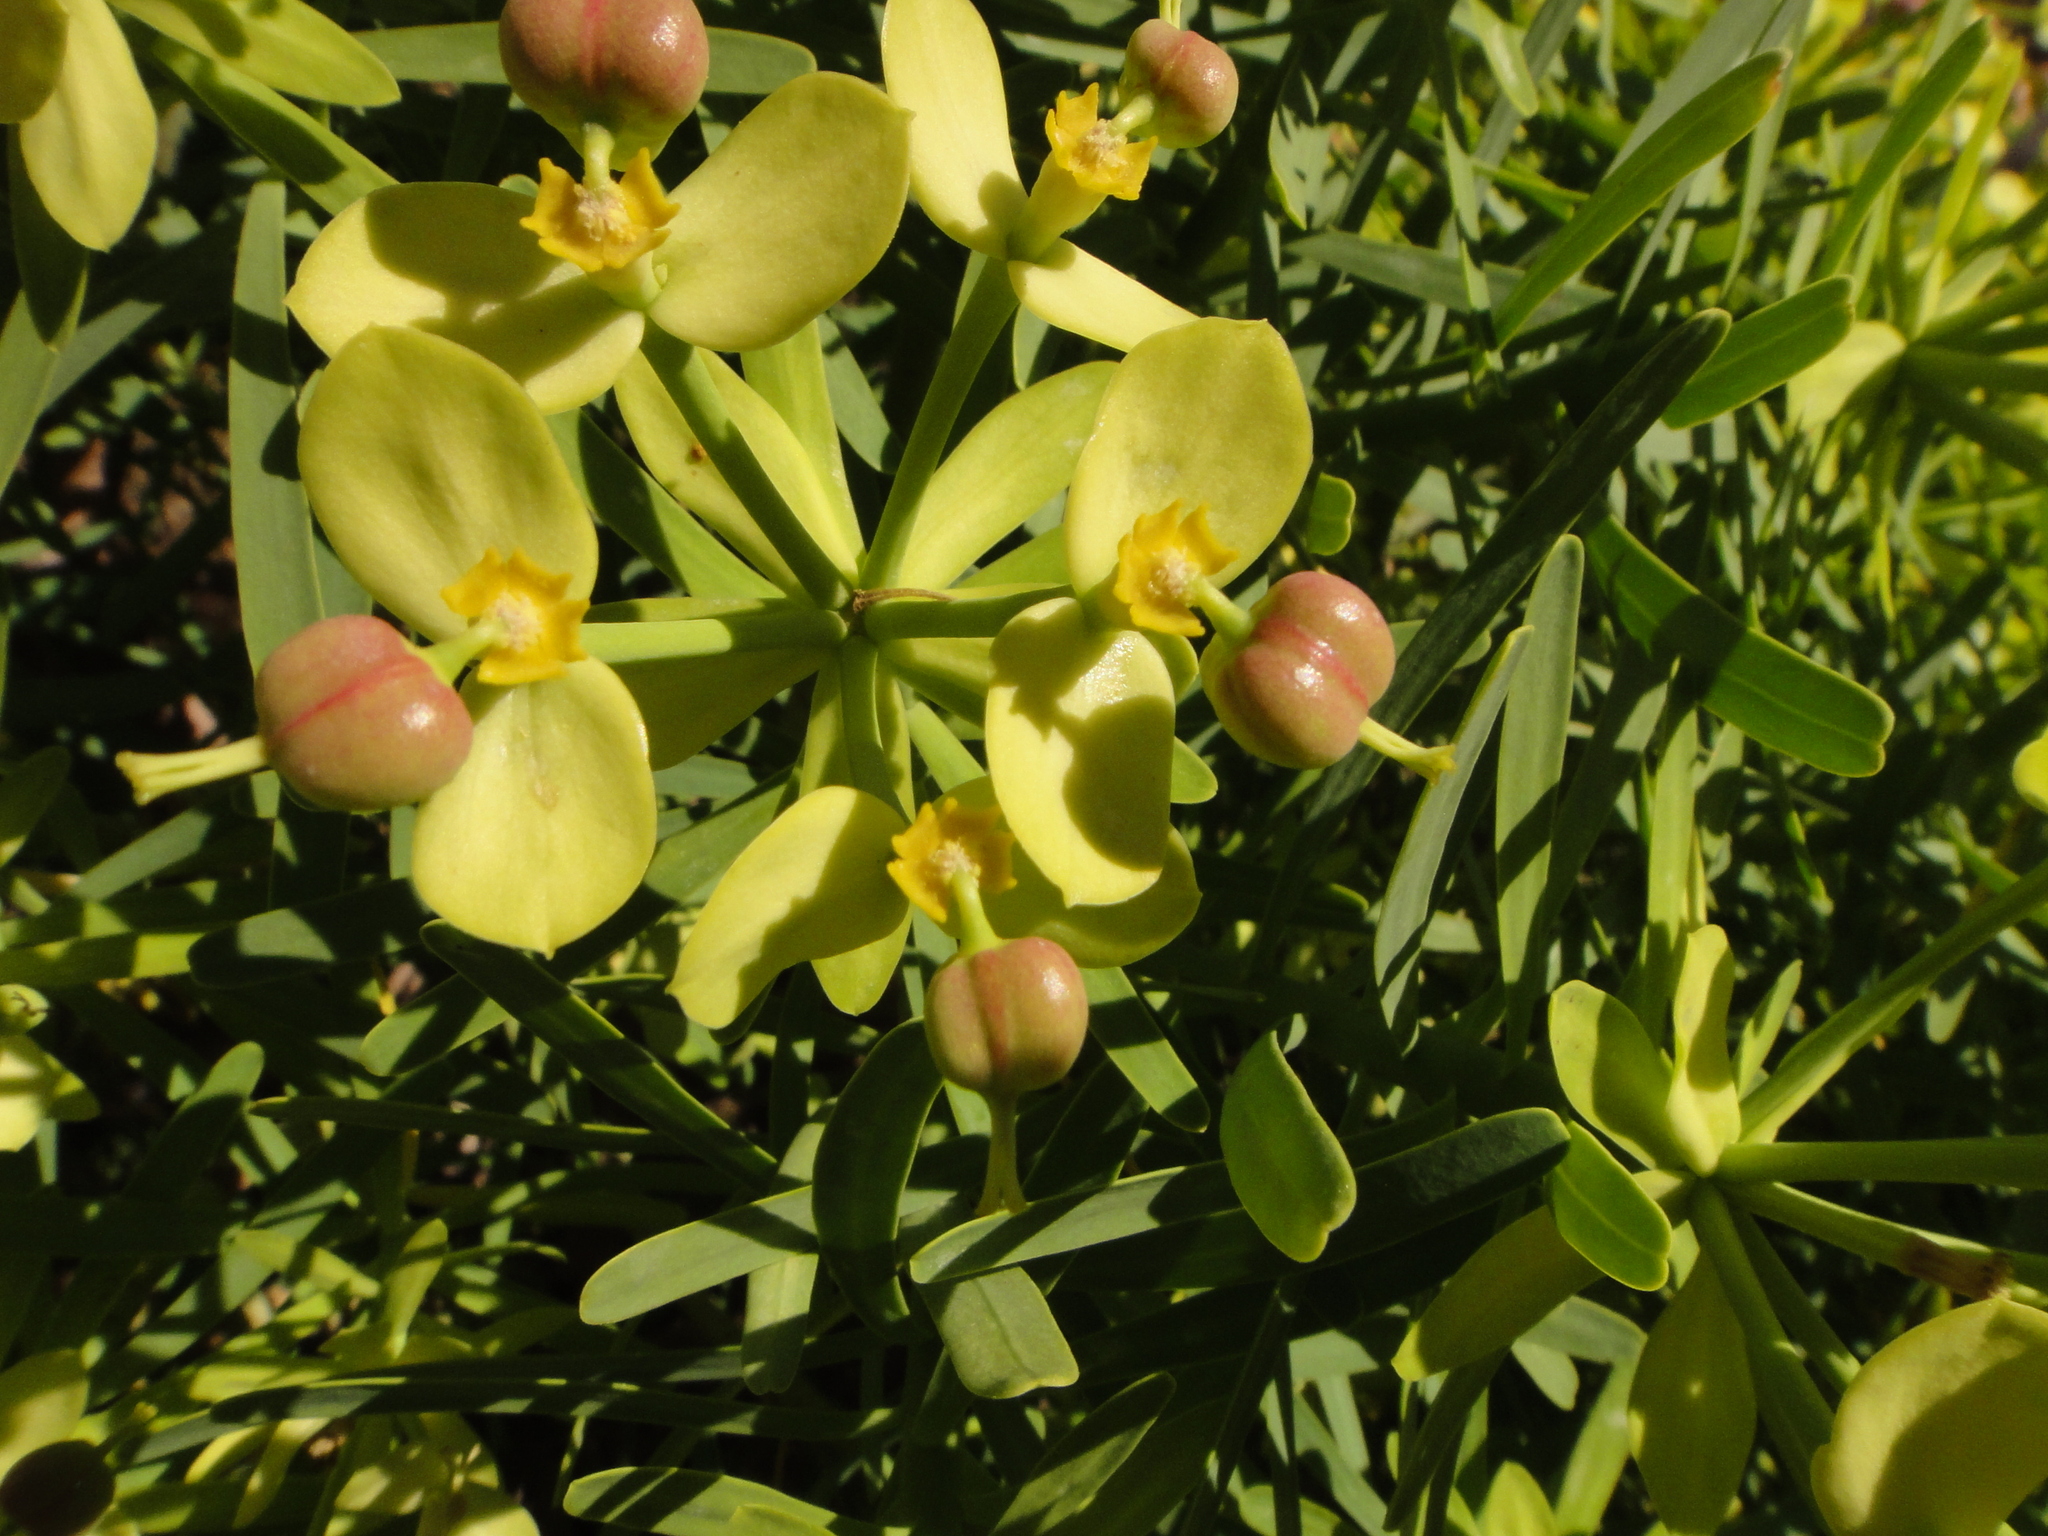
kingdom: Plantae
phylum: Tracheophyta
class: Magnoliopsida
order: Malpighiales
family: Euphorbiaceae
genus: Euphorbia
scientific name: Euphorbia regis-jubae
